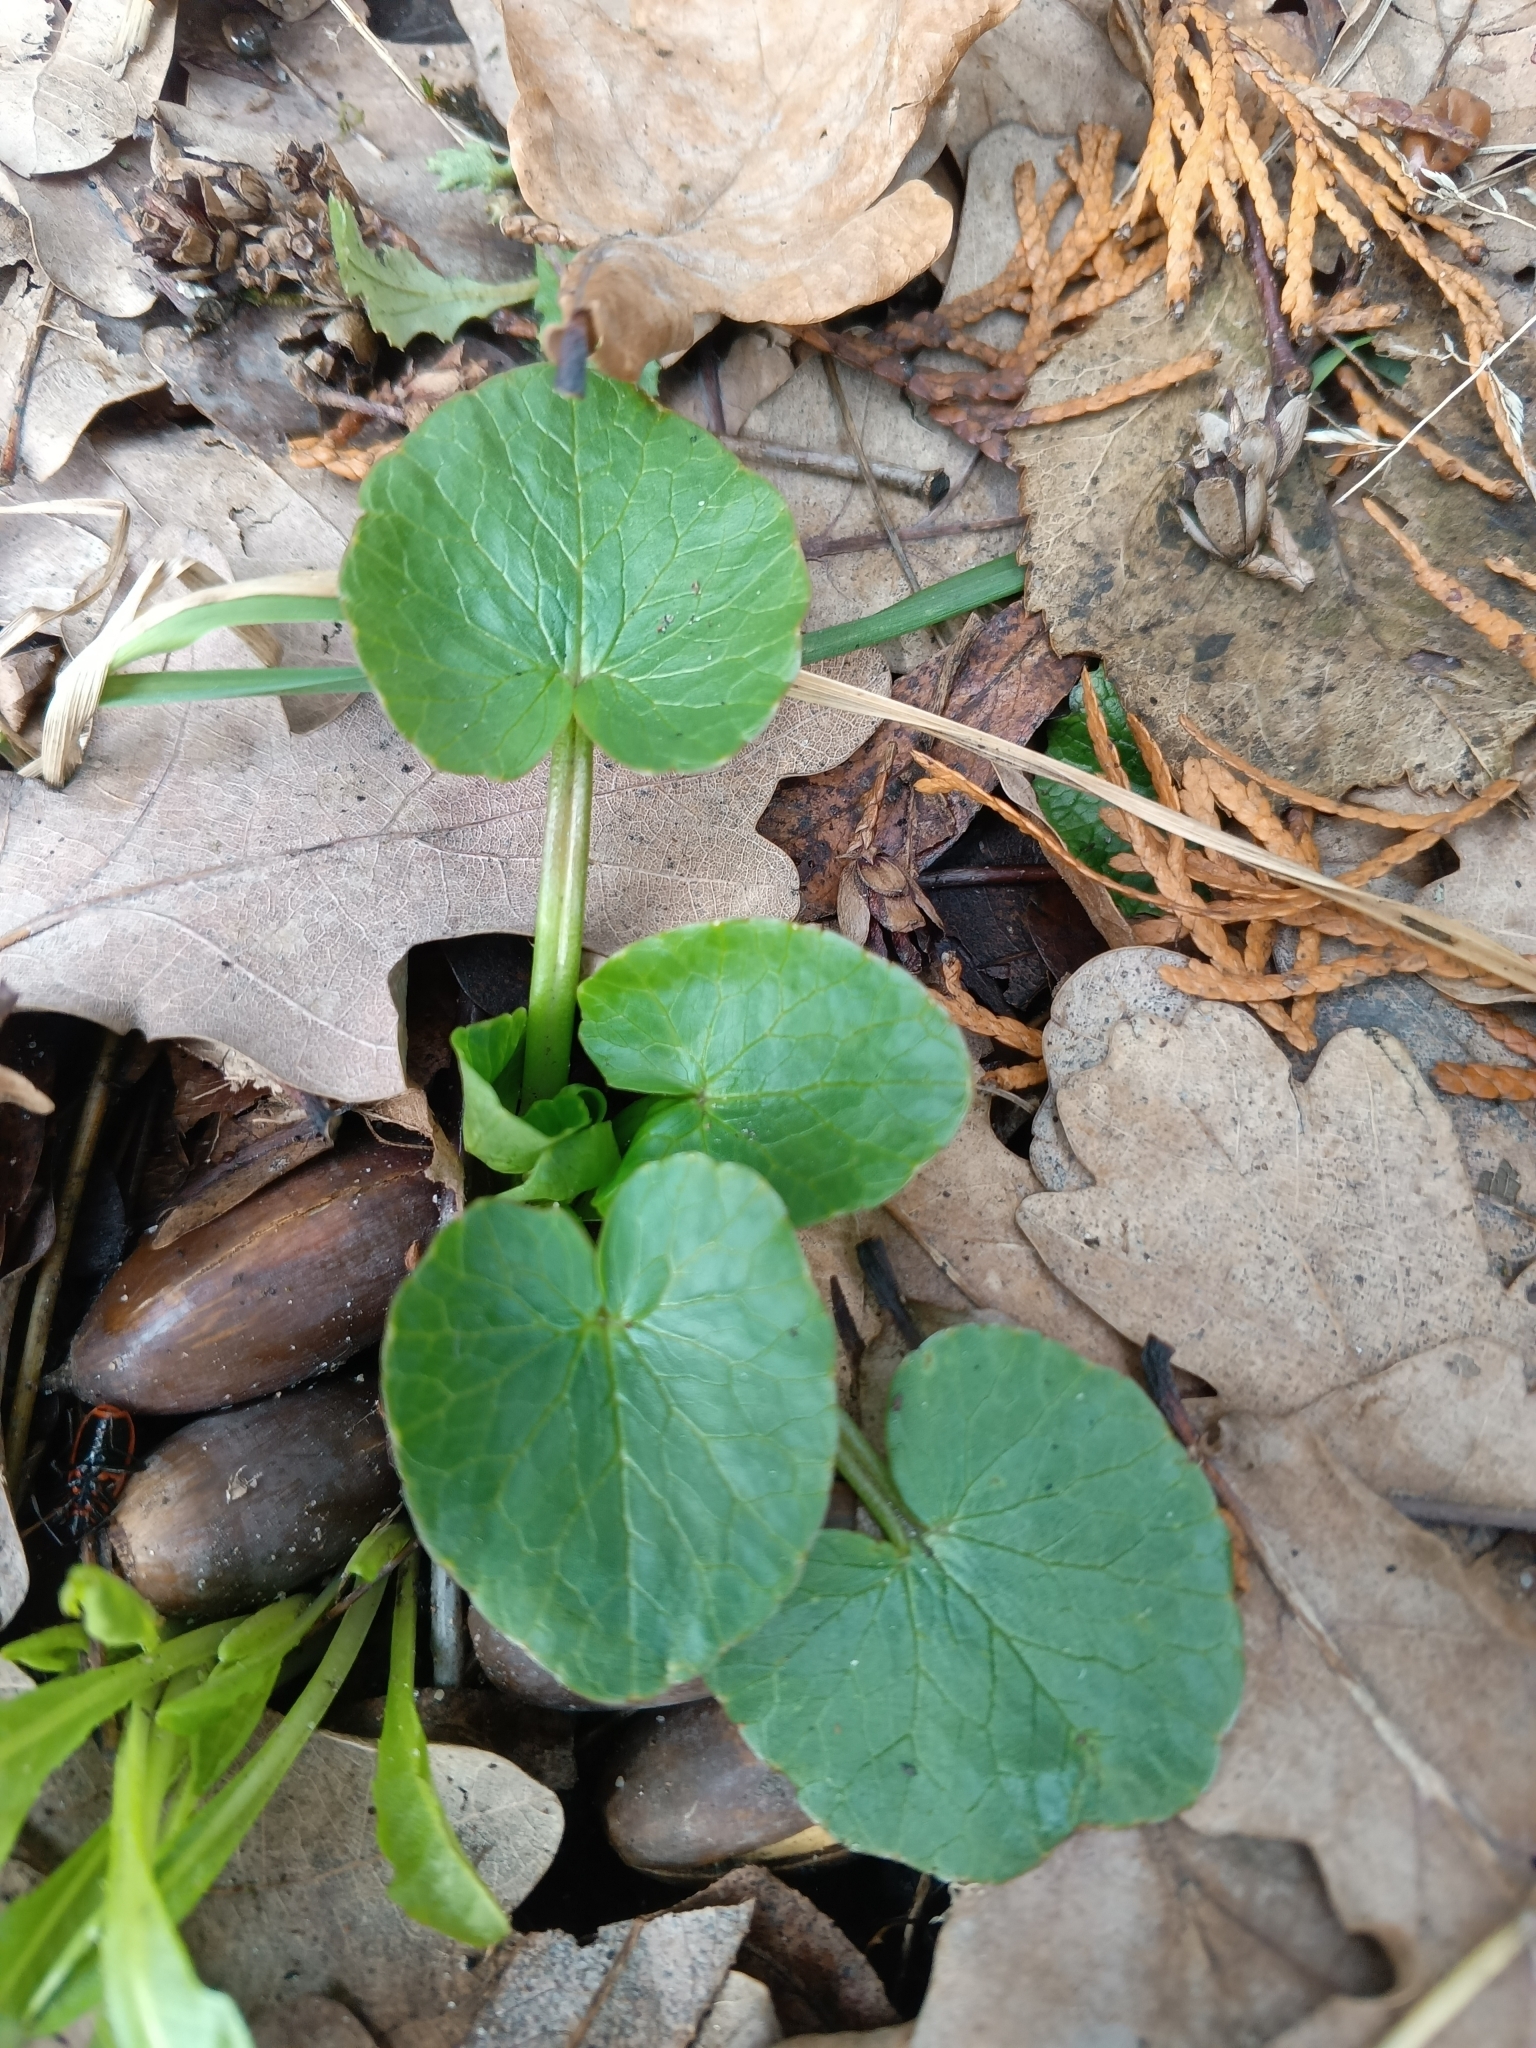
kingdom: Plantae
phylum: Tracheophyta
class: Magnoliopsida
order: Ranunculales
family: Ranunculaceae
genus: Ficaria
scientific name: Ficaria verna
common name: Lesser celandine
